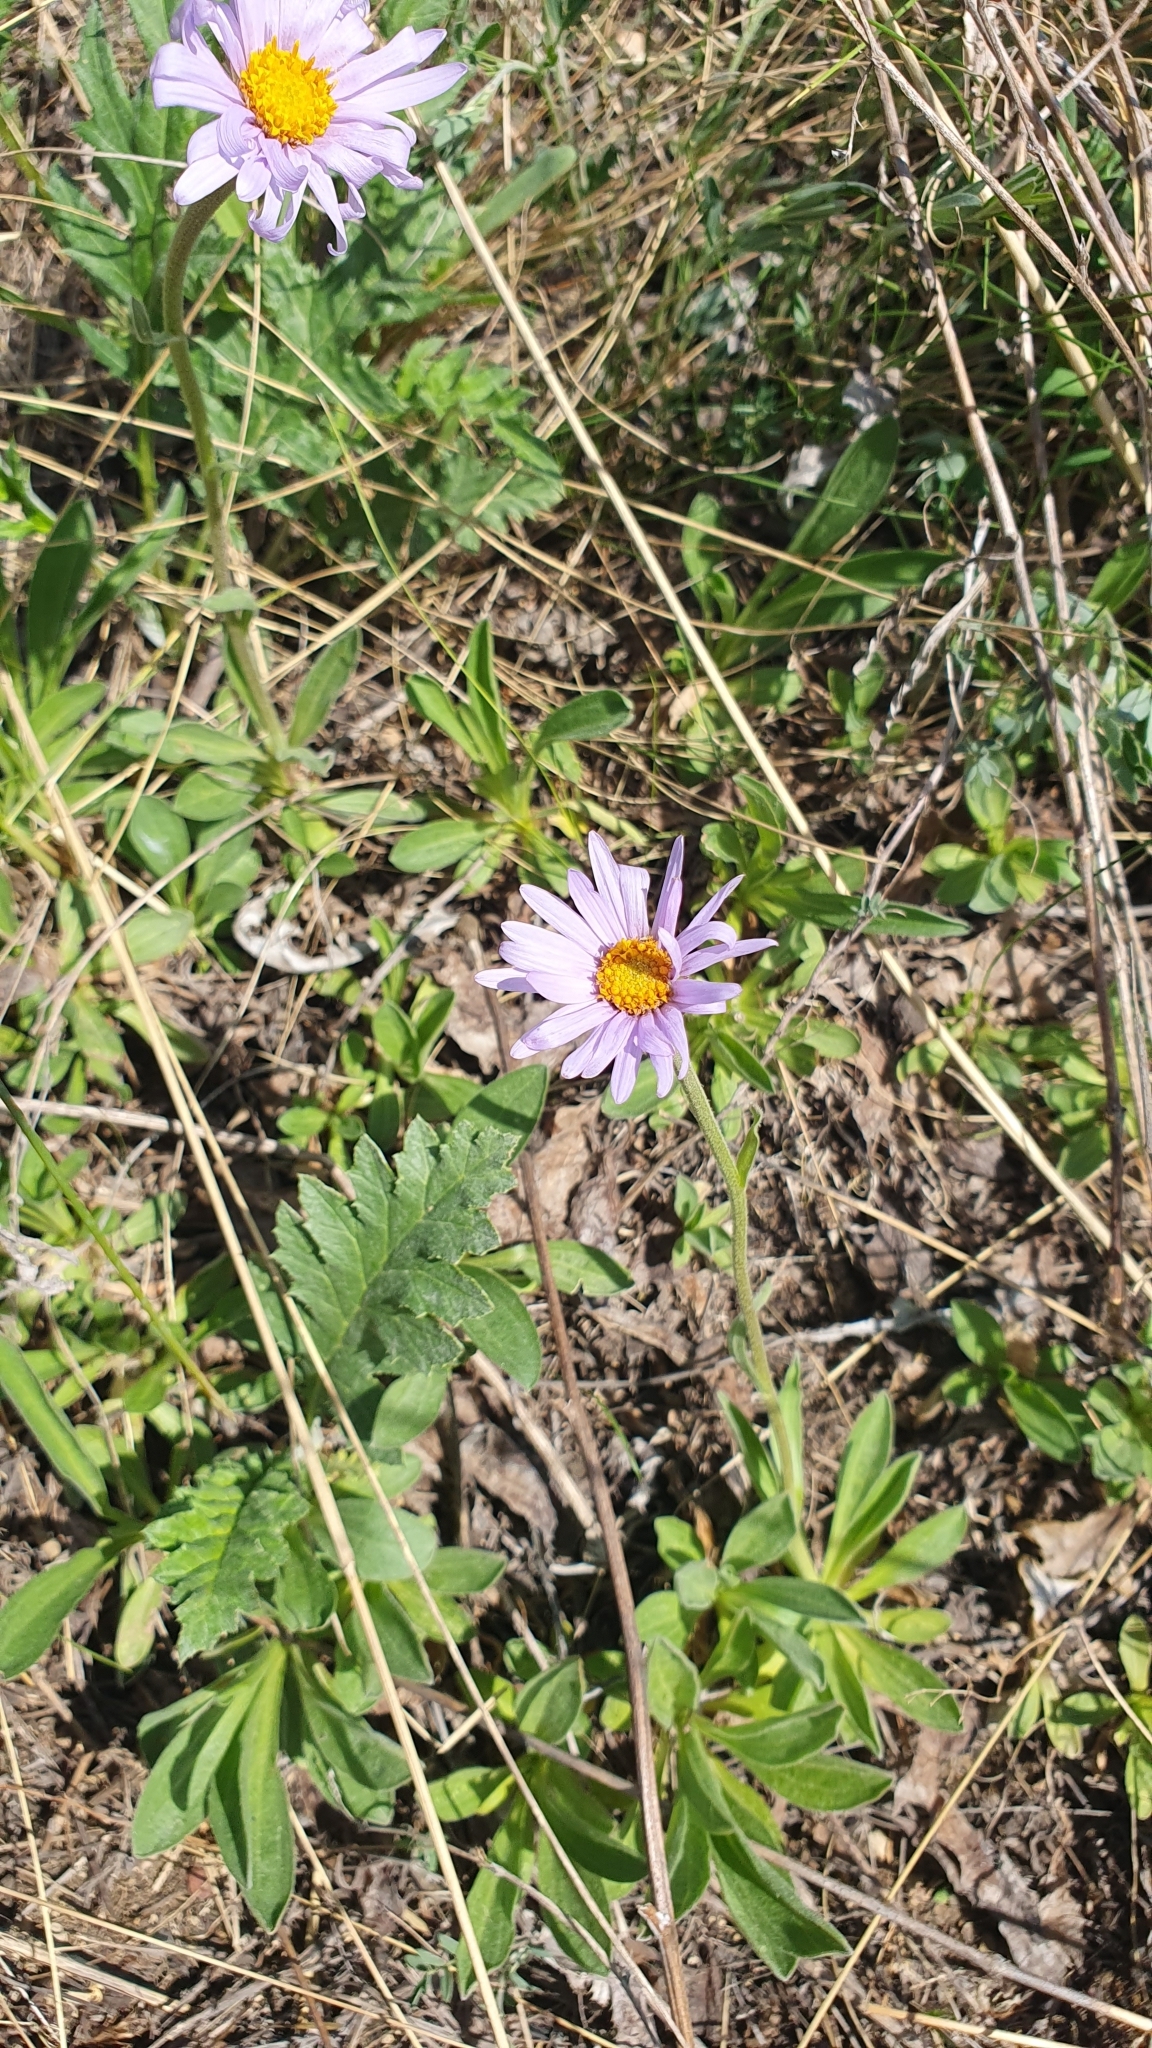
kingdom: Plantae
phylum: Tracheophyta
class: Magnoliopsida
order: Asterales
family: Asteraceae
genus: Aster
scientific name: Aster alpinus
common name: Alpine aster
